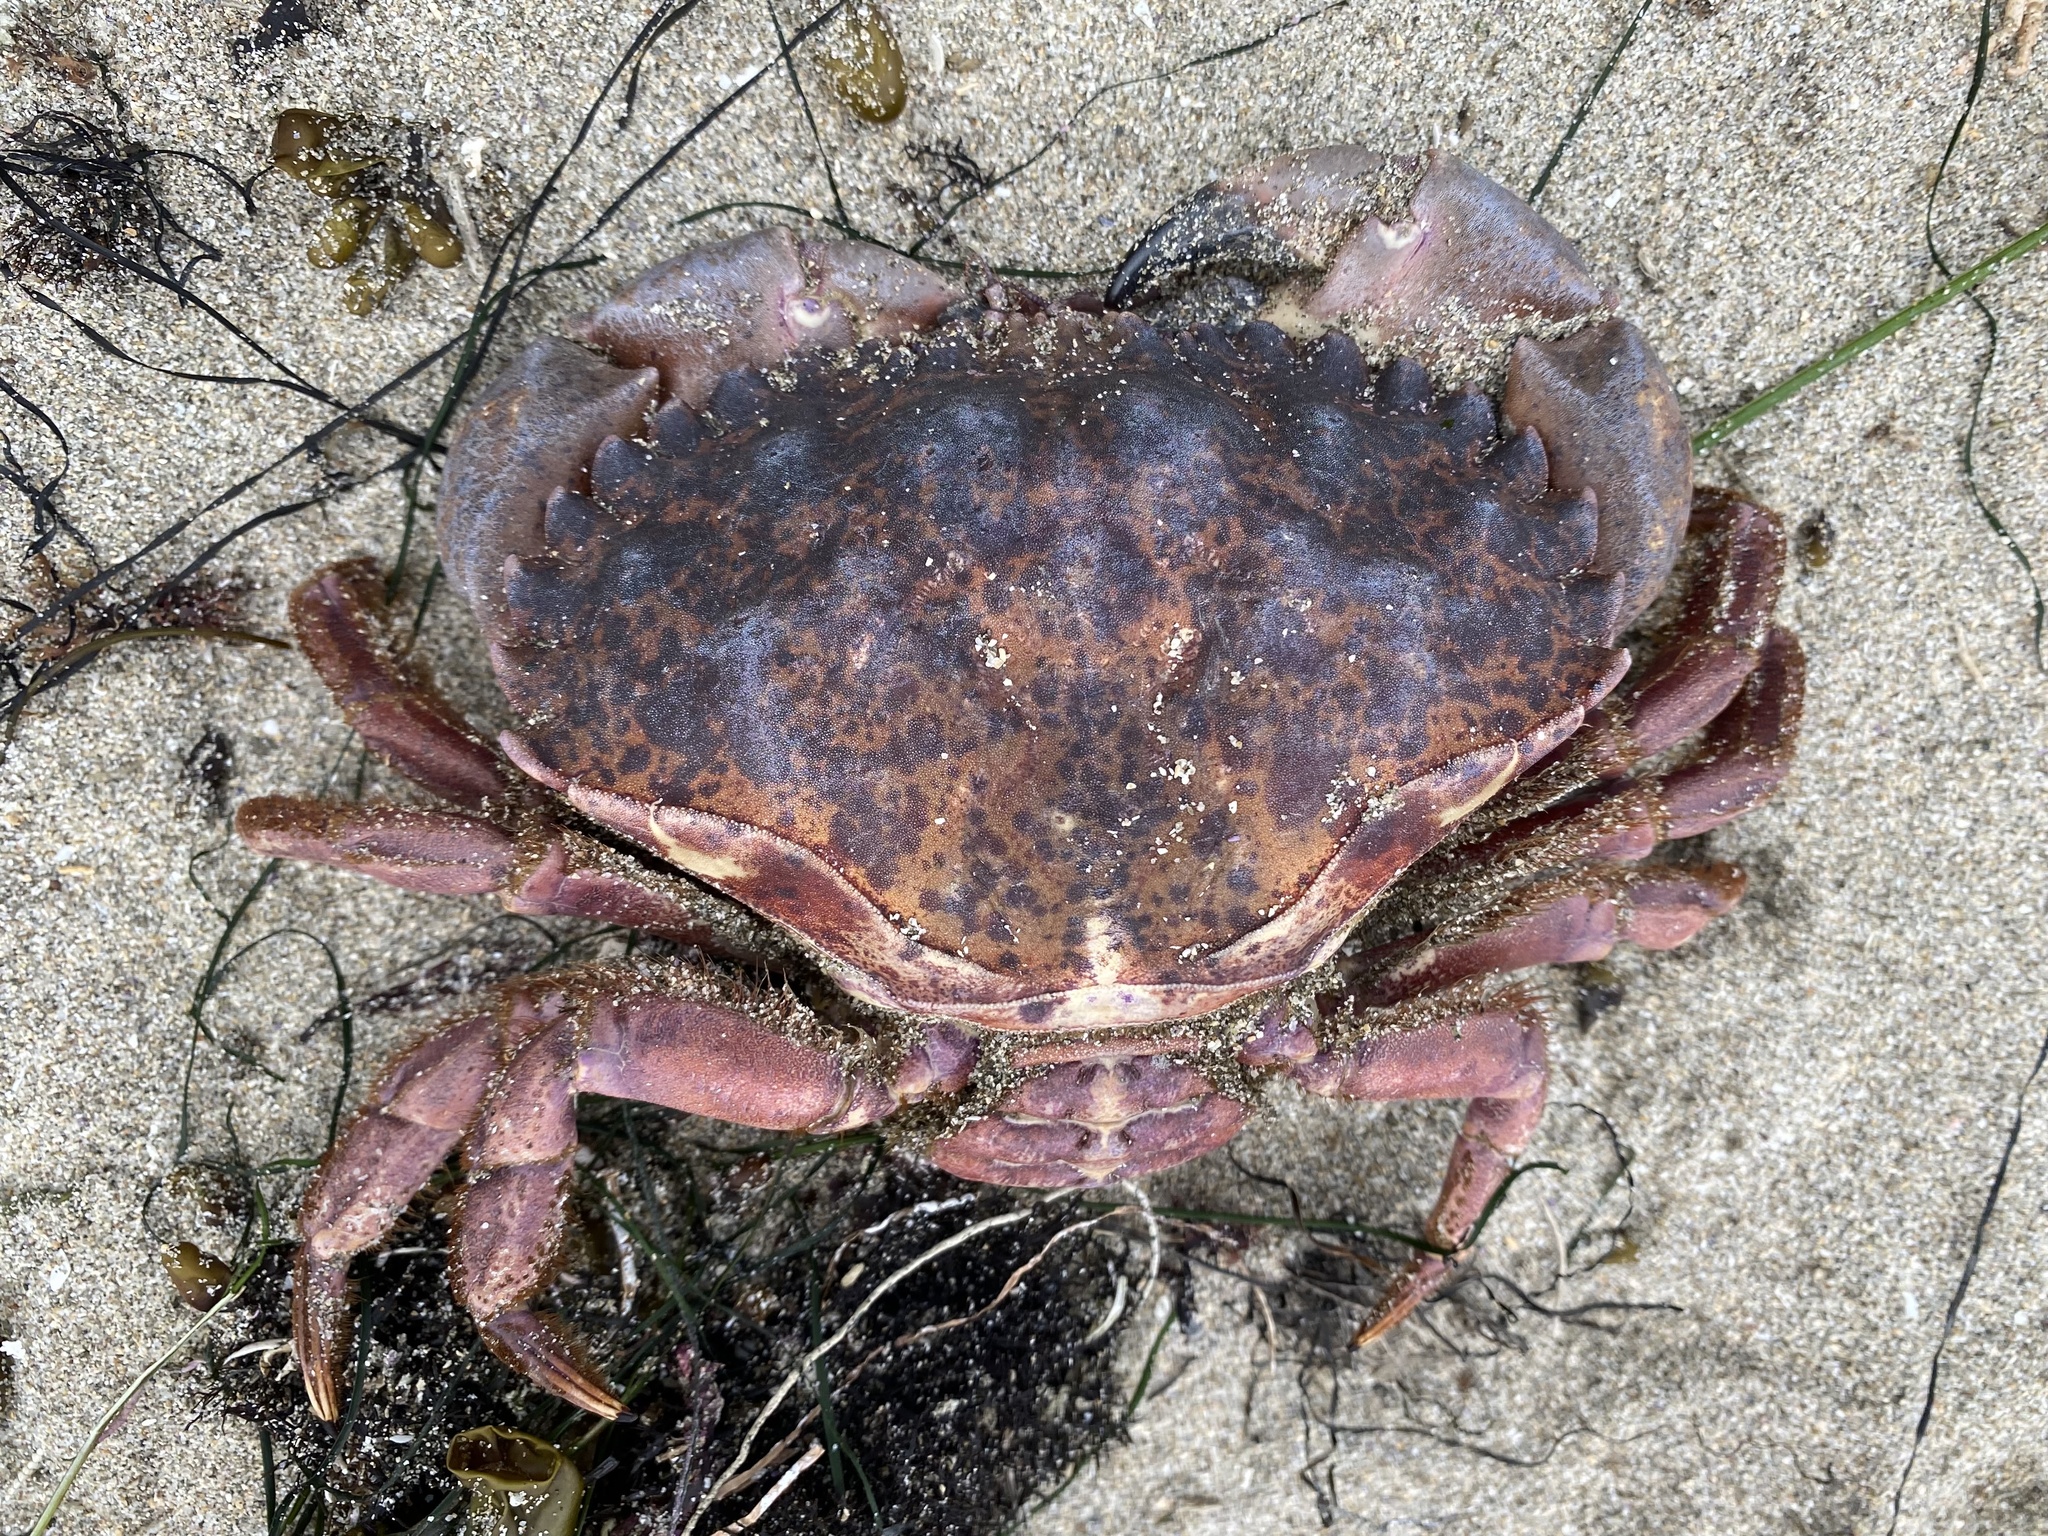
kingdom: Animalia
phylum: Arthropoda
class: Malacostraca
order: Decapoda
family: Cancridae
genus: Romaleon
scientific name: Romaleon antennarium
